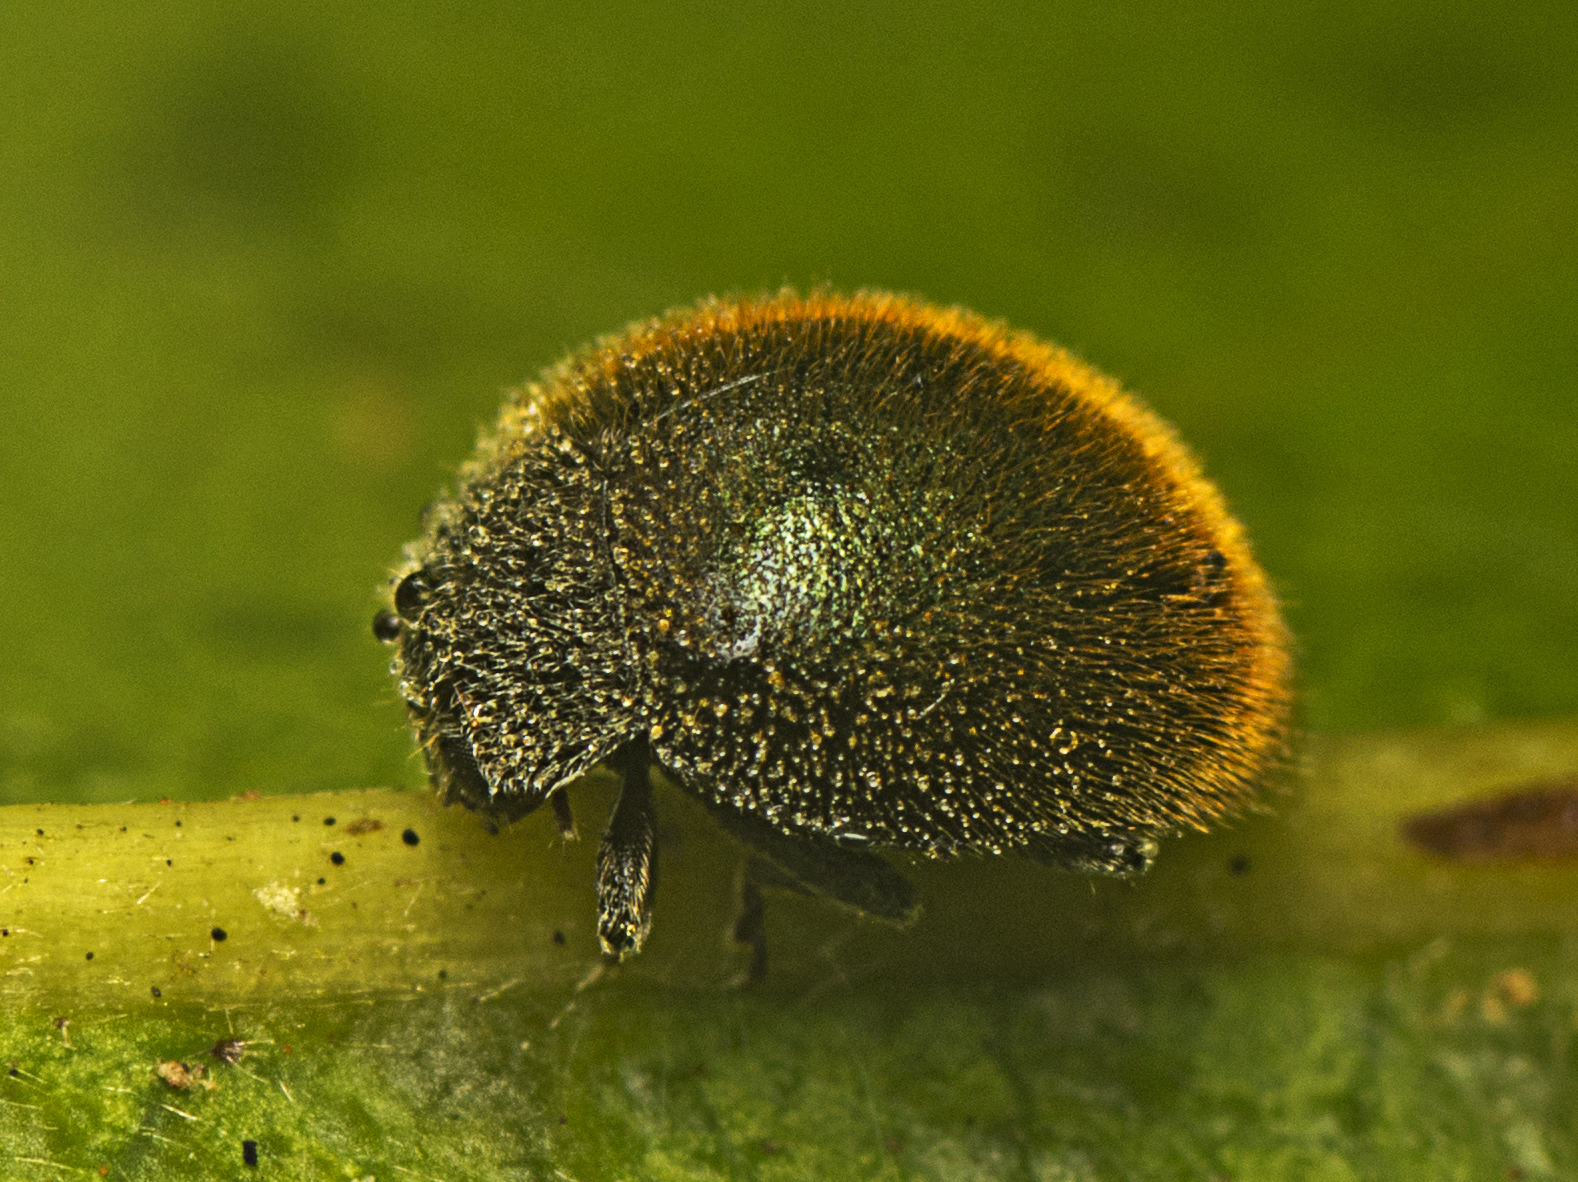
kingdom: Animalia
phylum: Arthropoda
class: Insecta
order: Coleoptera
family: Coccinellidae
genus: Erithionyx
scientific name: Erithionyx
